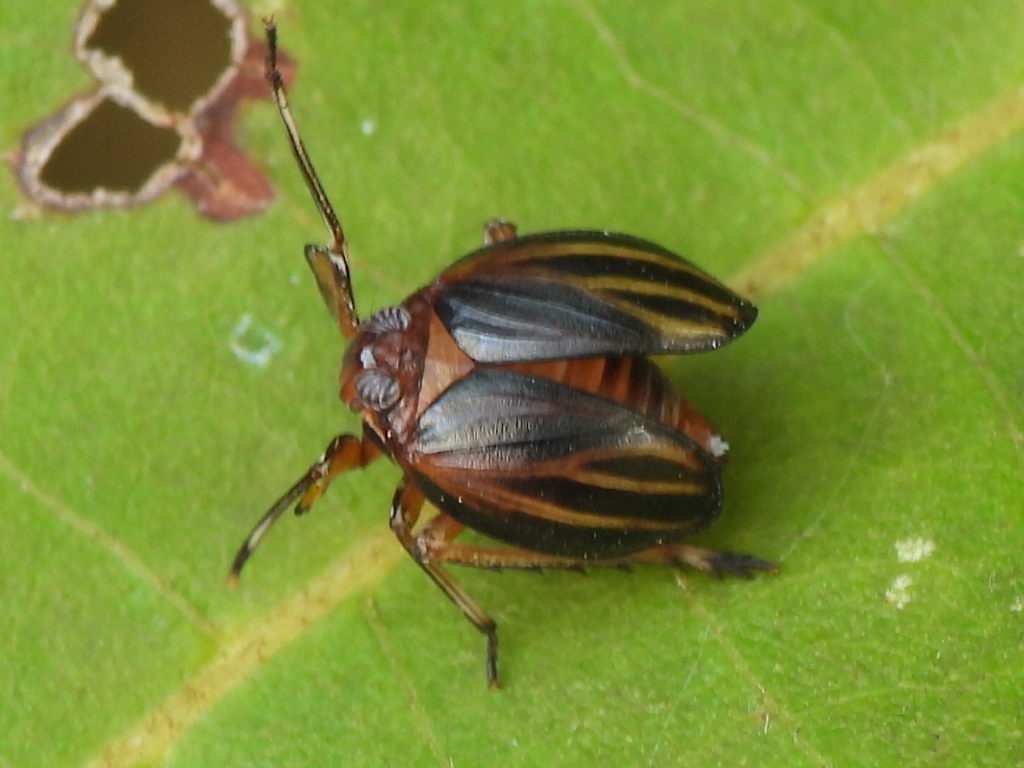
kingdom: Animalia
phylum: Arthropoda
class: Insecta
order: Hemiptera
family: Achilidae
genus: Isodaemon
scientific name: Isodaemon orontes
